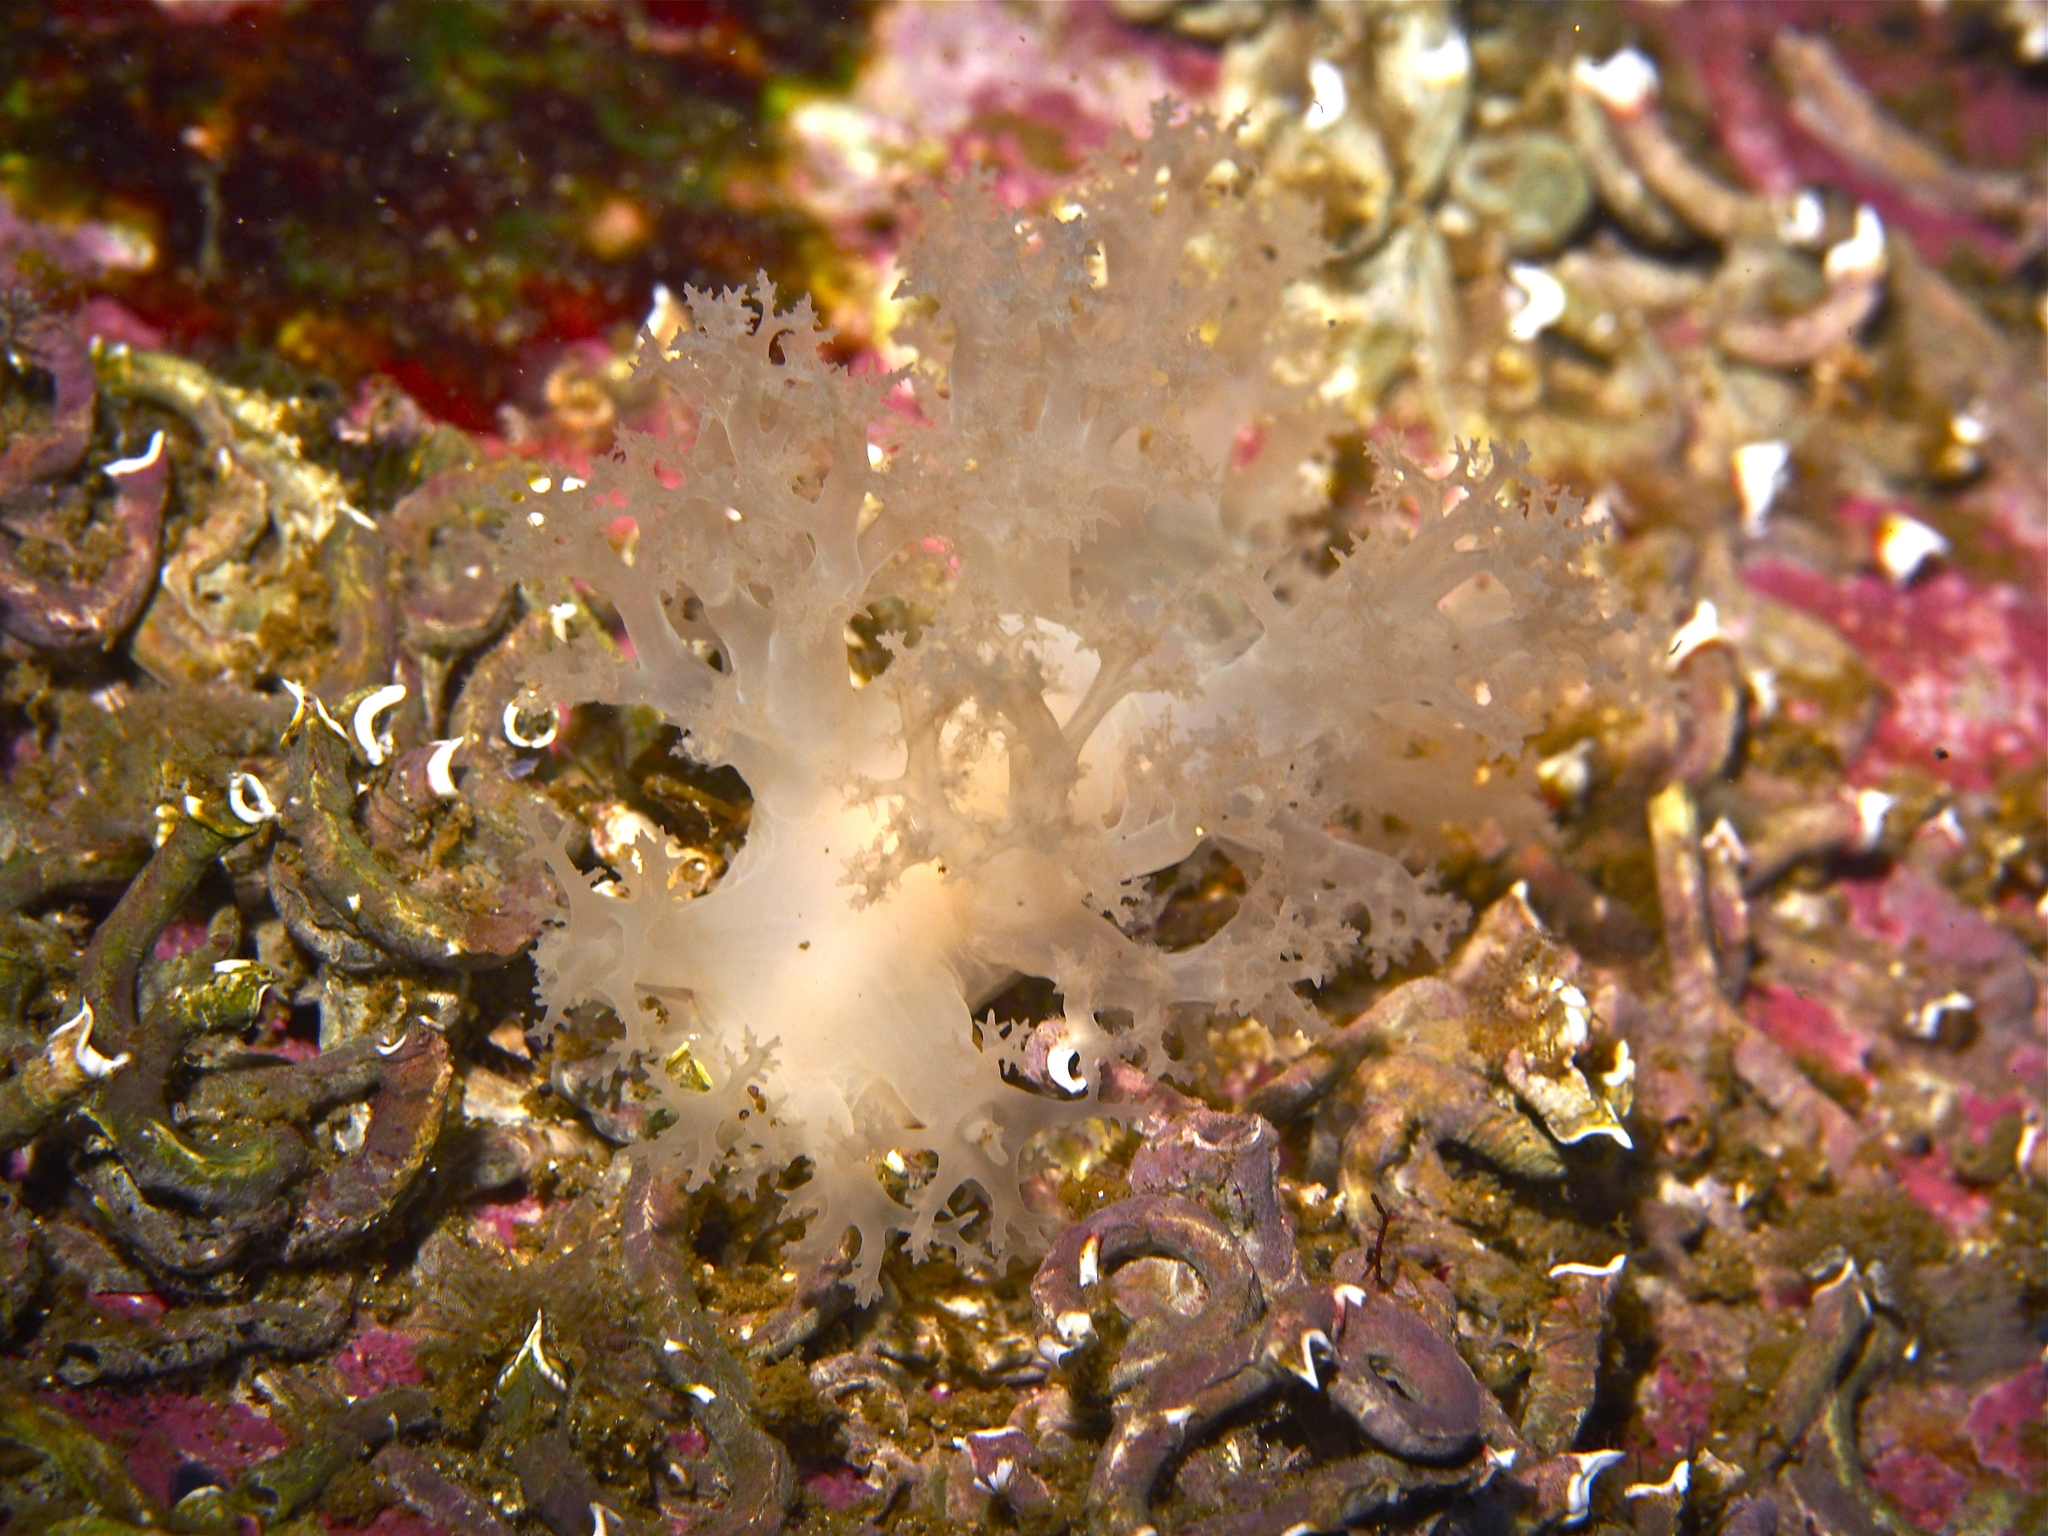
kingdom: Animalia
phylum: Mollusca
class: Gastropoda
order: Nudibranchia
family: Dendronotidae
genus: Dendronotus
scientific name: Dendronotus lacteus
